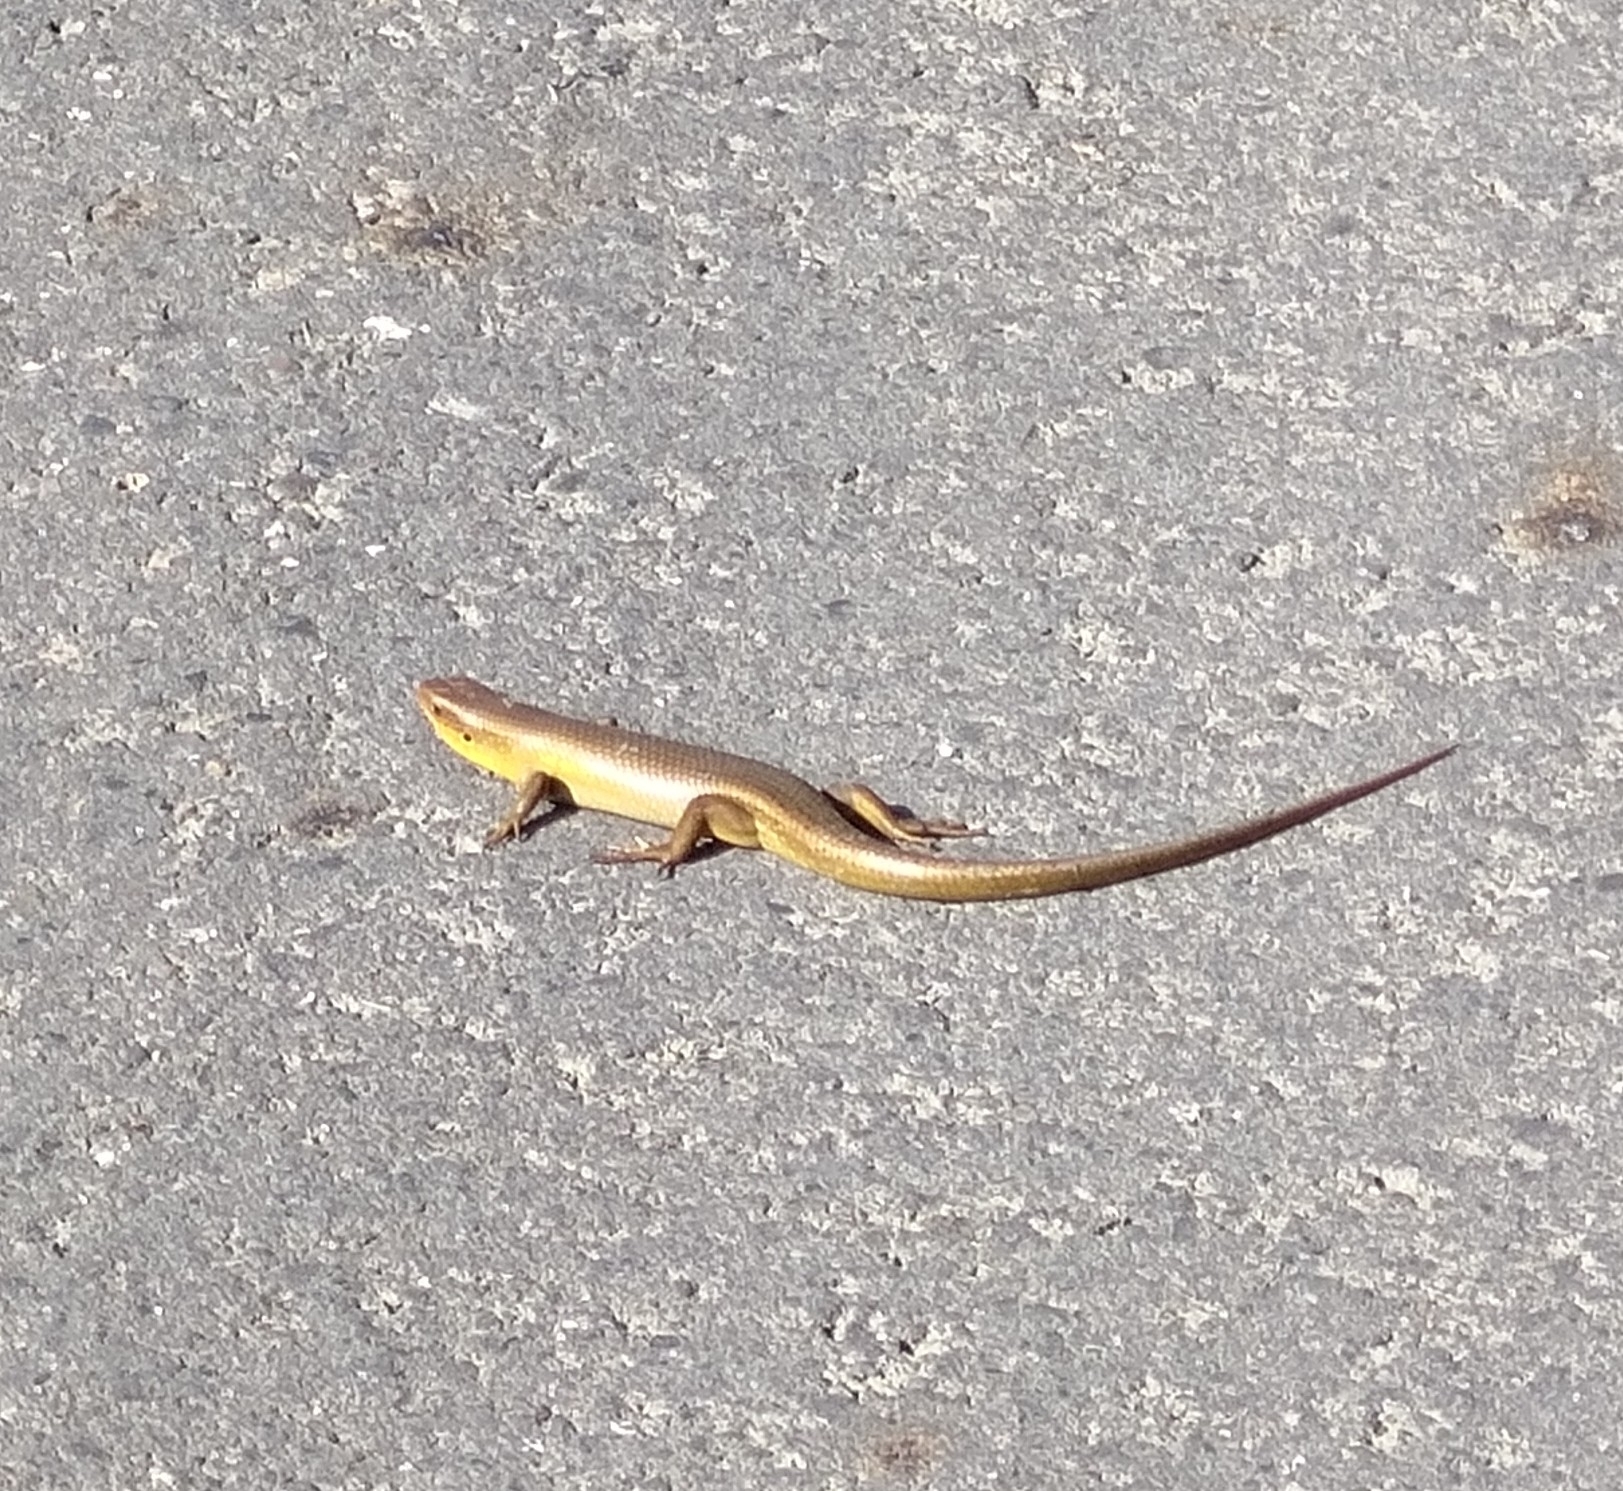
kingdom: Animalia
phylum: Chordata
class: Squamata
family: Scincidae
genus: Eutropis
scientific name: Eutropis multifasciata
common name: Common mabuya
